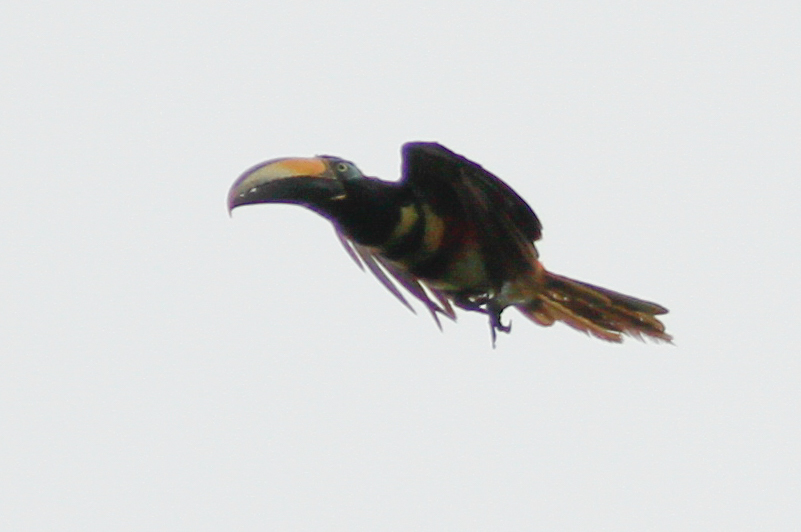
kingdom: Animalia
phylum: Chordata
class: Aves
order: Piciformes
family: Ramphastidae
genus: Pteroglossus
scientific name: Pteroglossus pluricinctus
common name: Many-banded aracari
